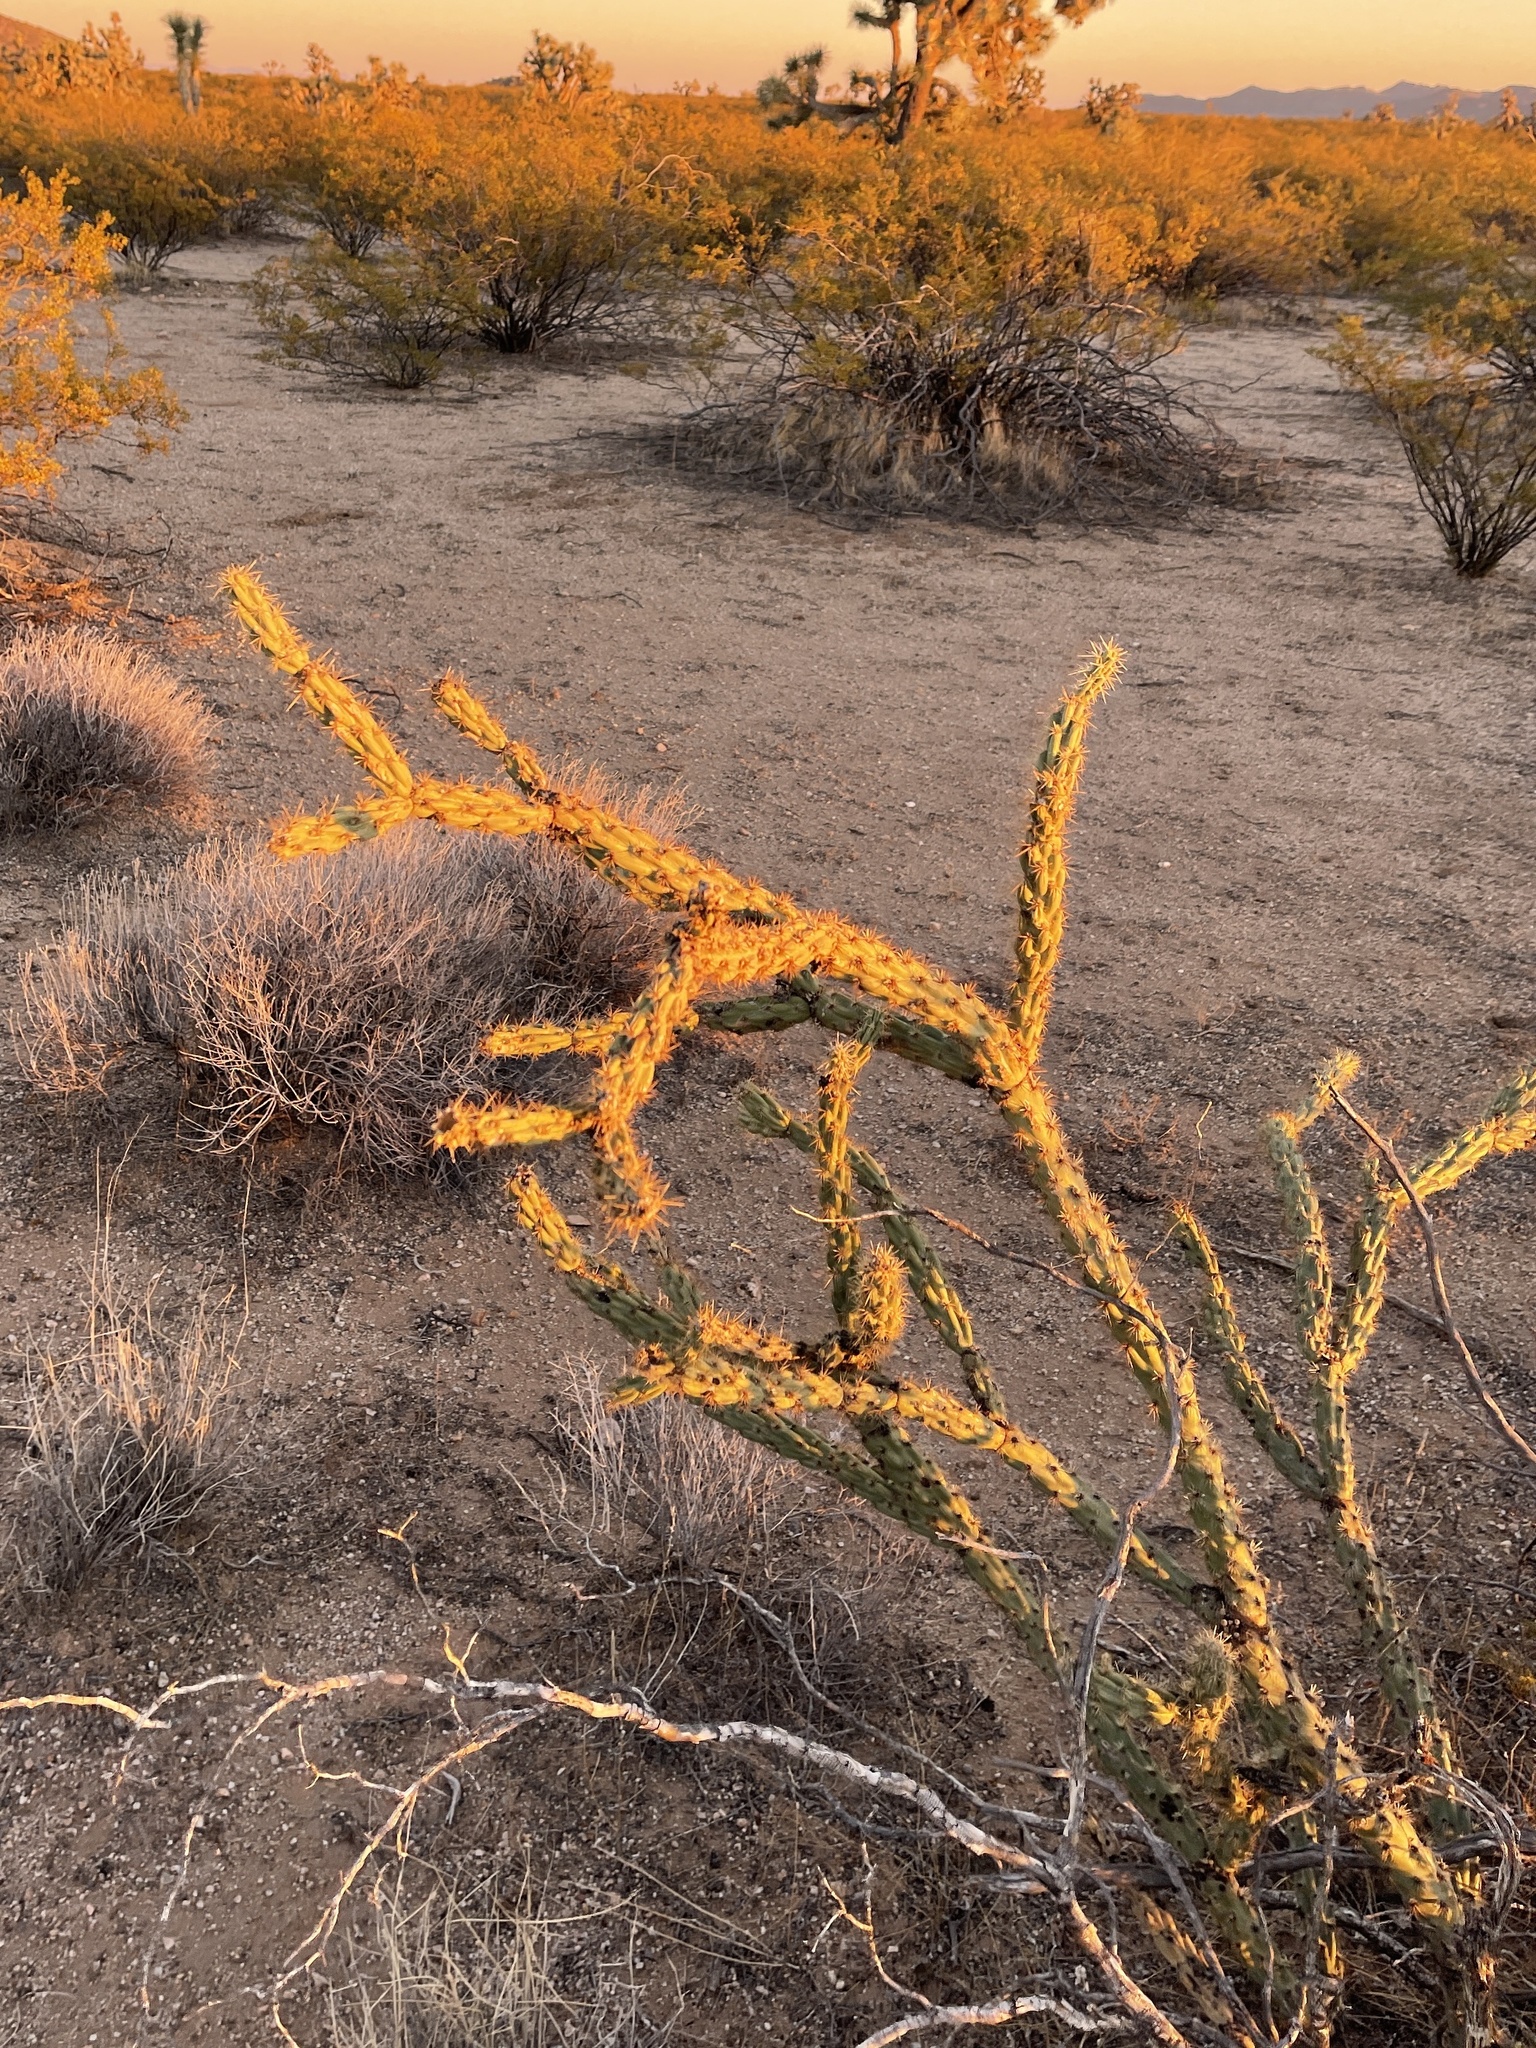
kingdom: Plantae
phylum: Tracheophyta
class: Magnoliopsida
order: Caryophyllales
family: Cactaceae
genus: Cylindropuntia
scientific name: Cylindropuntia acanthocarpa
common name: Buckhorn cholla
